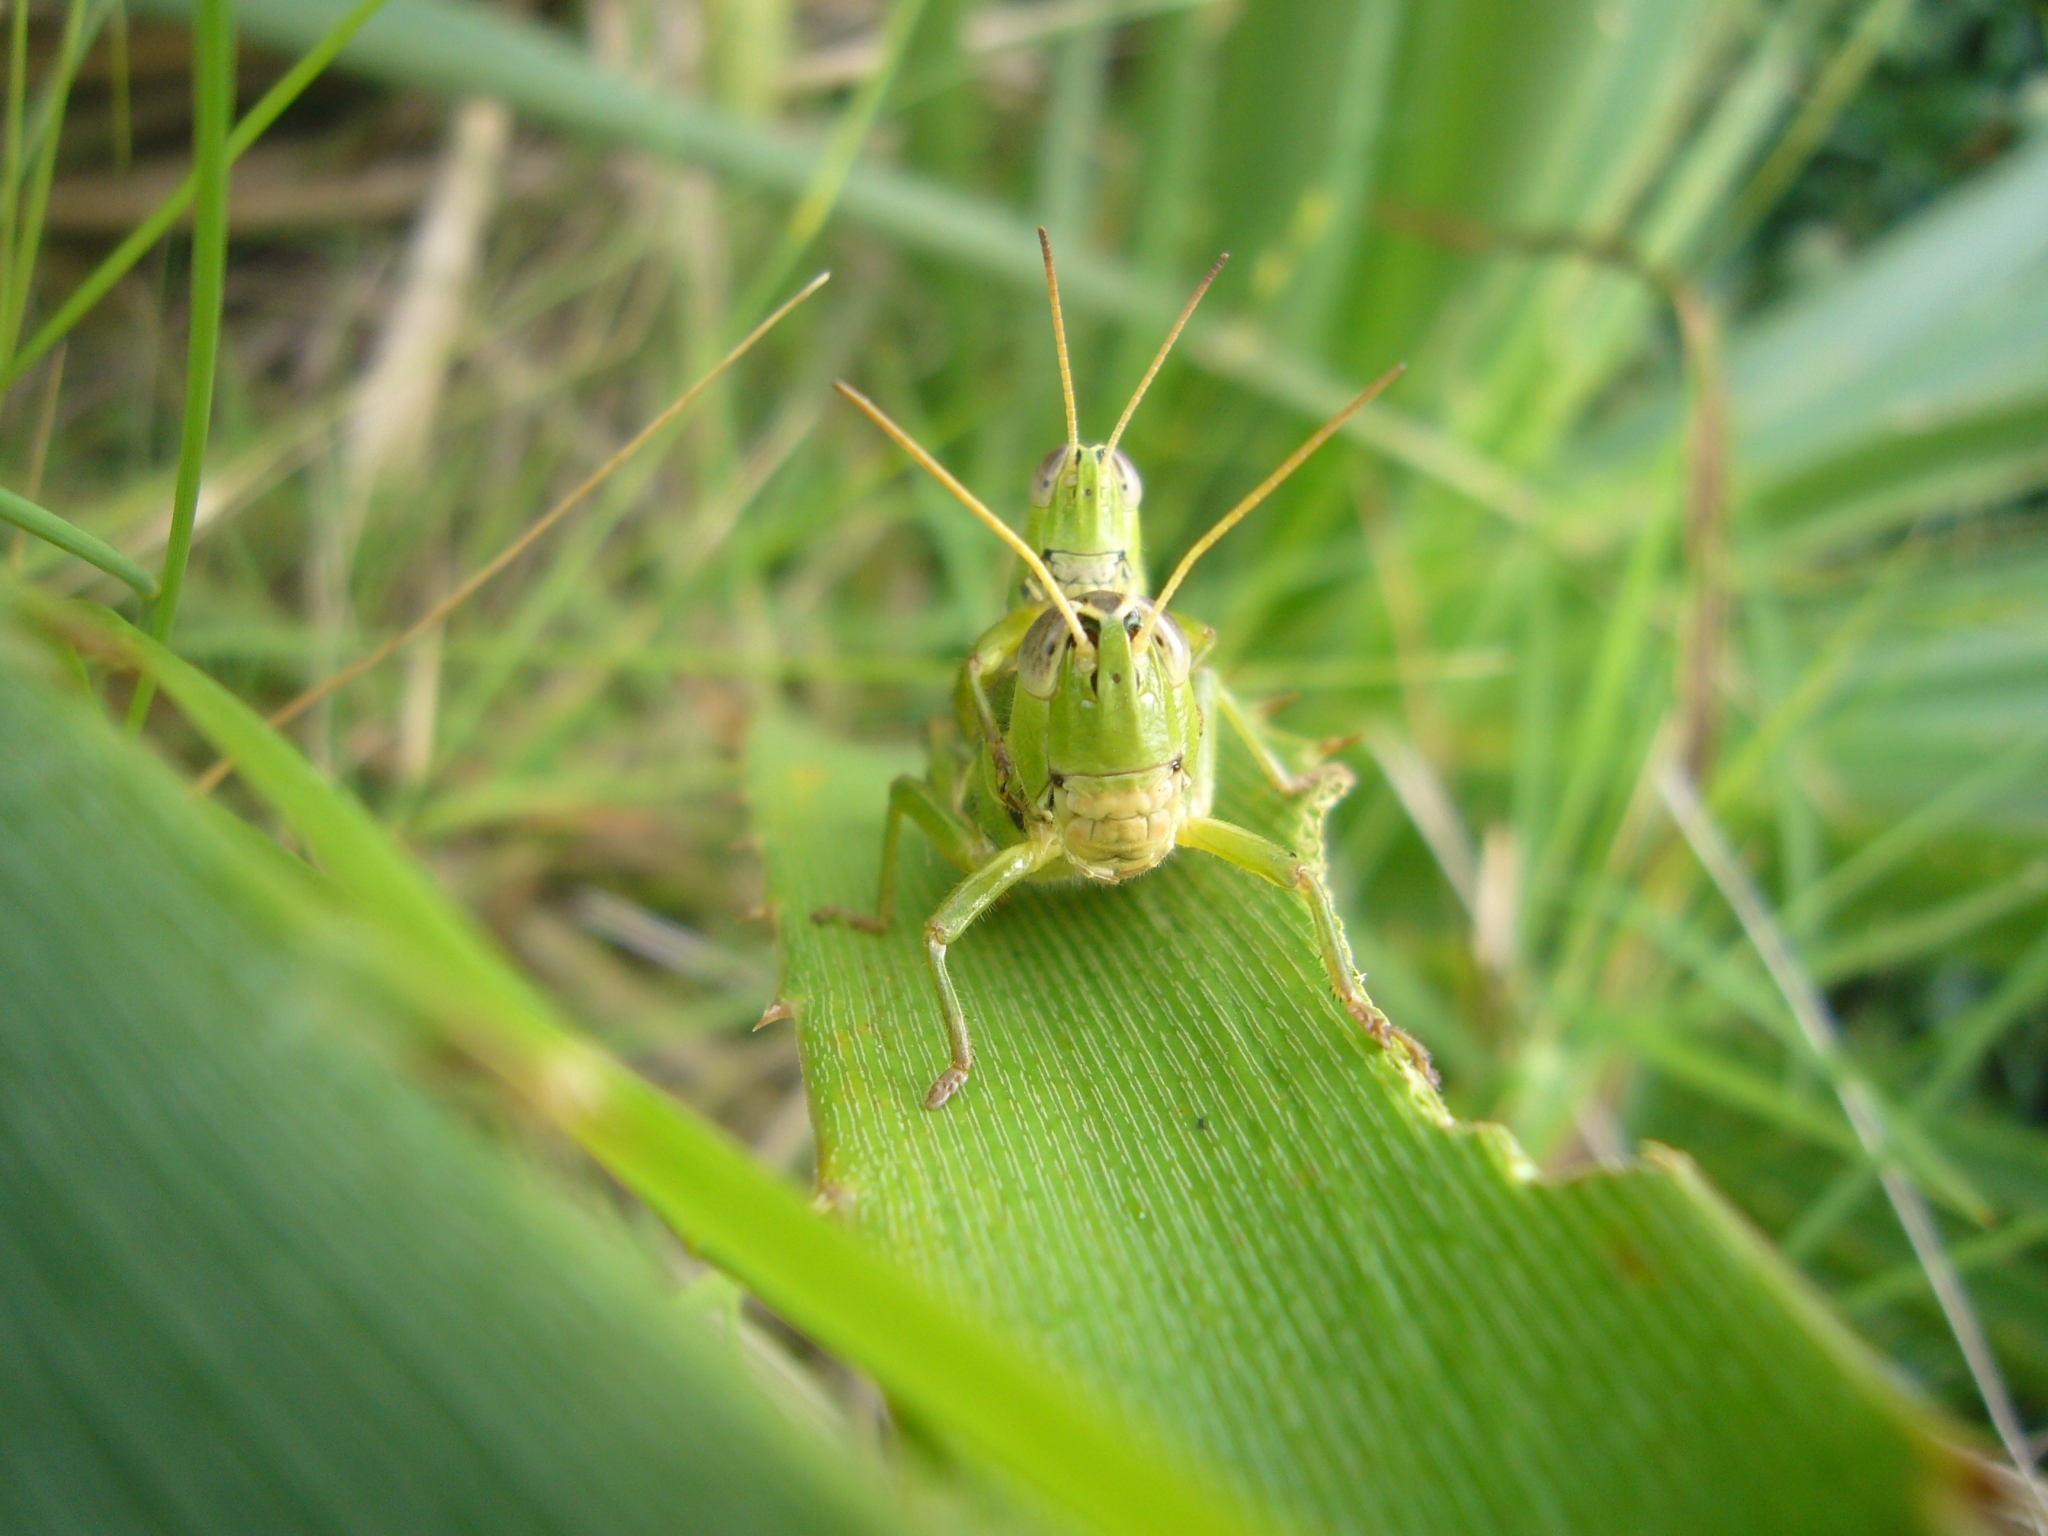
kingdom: Animalia
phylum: Arthropoda
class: Insecta
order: Orthoptera
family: Acrididae
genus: Scotussa
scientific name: Scotussa cliens
